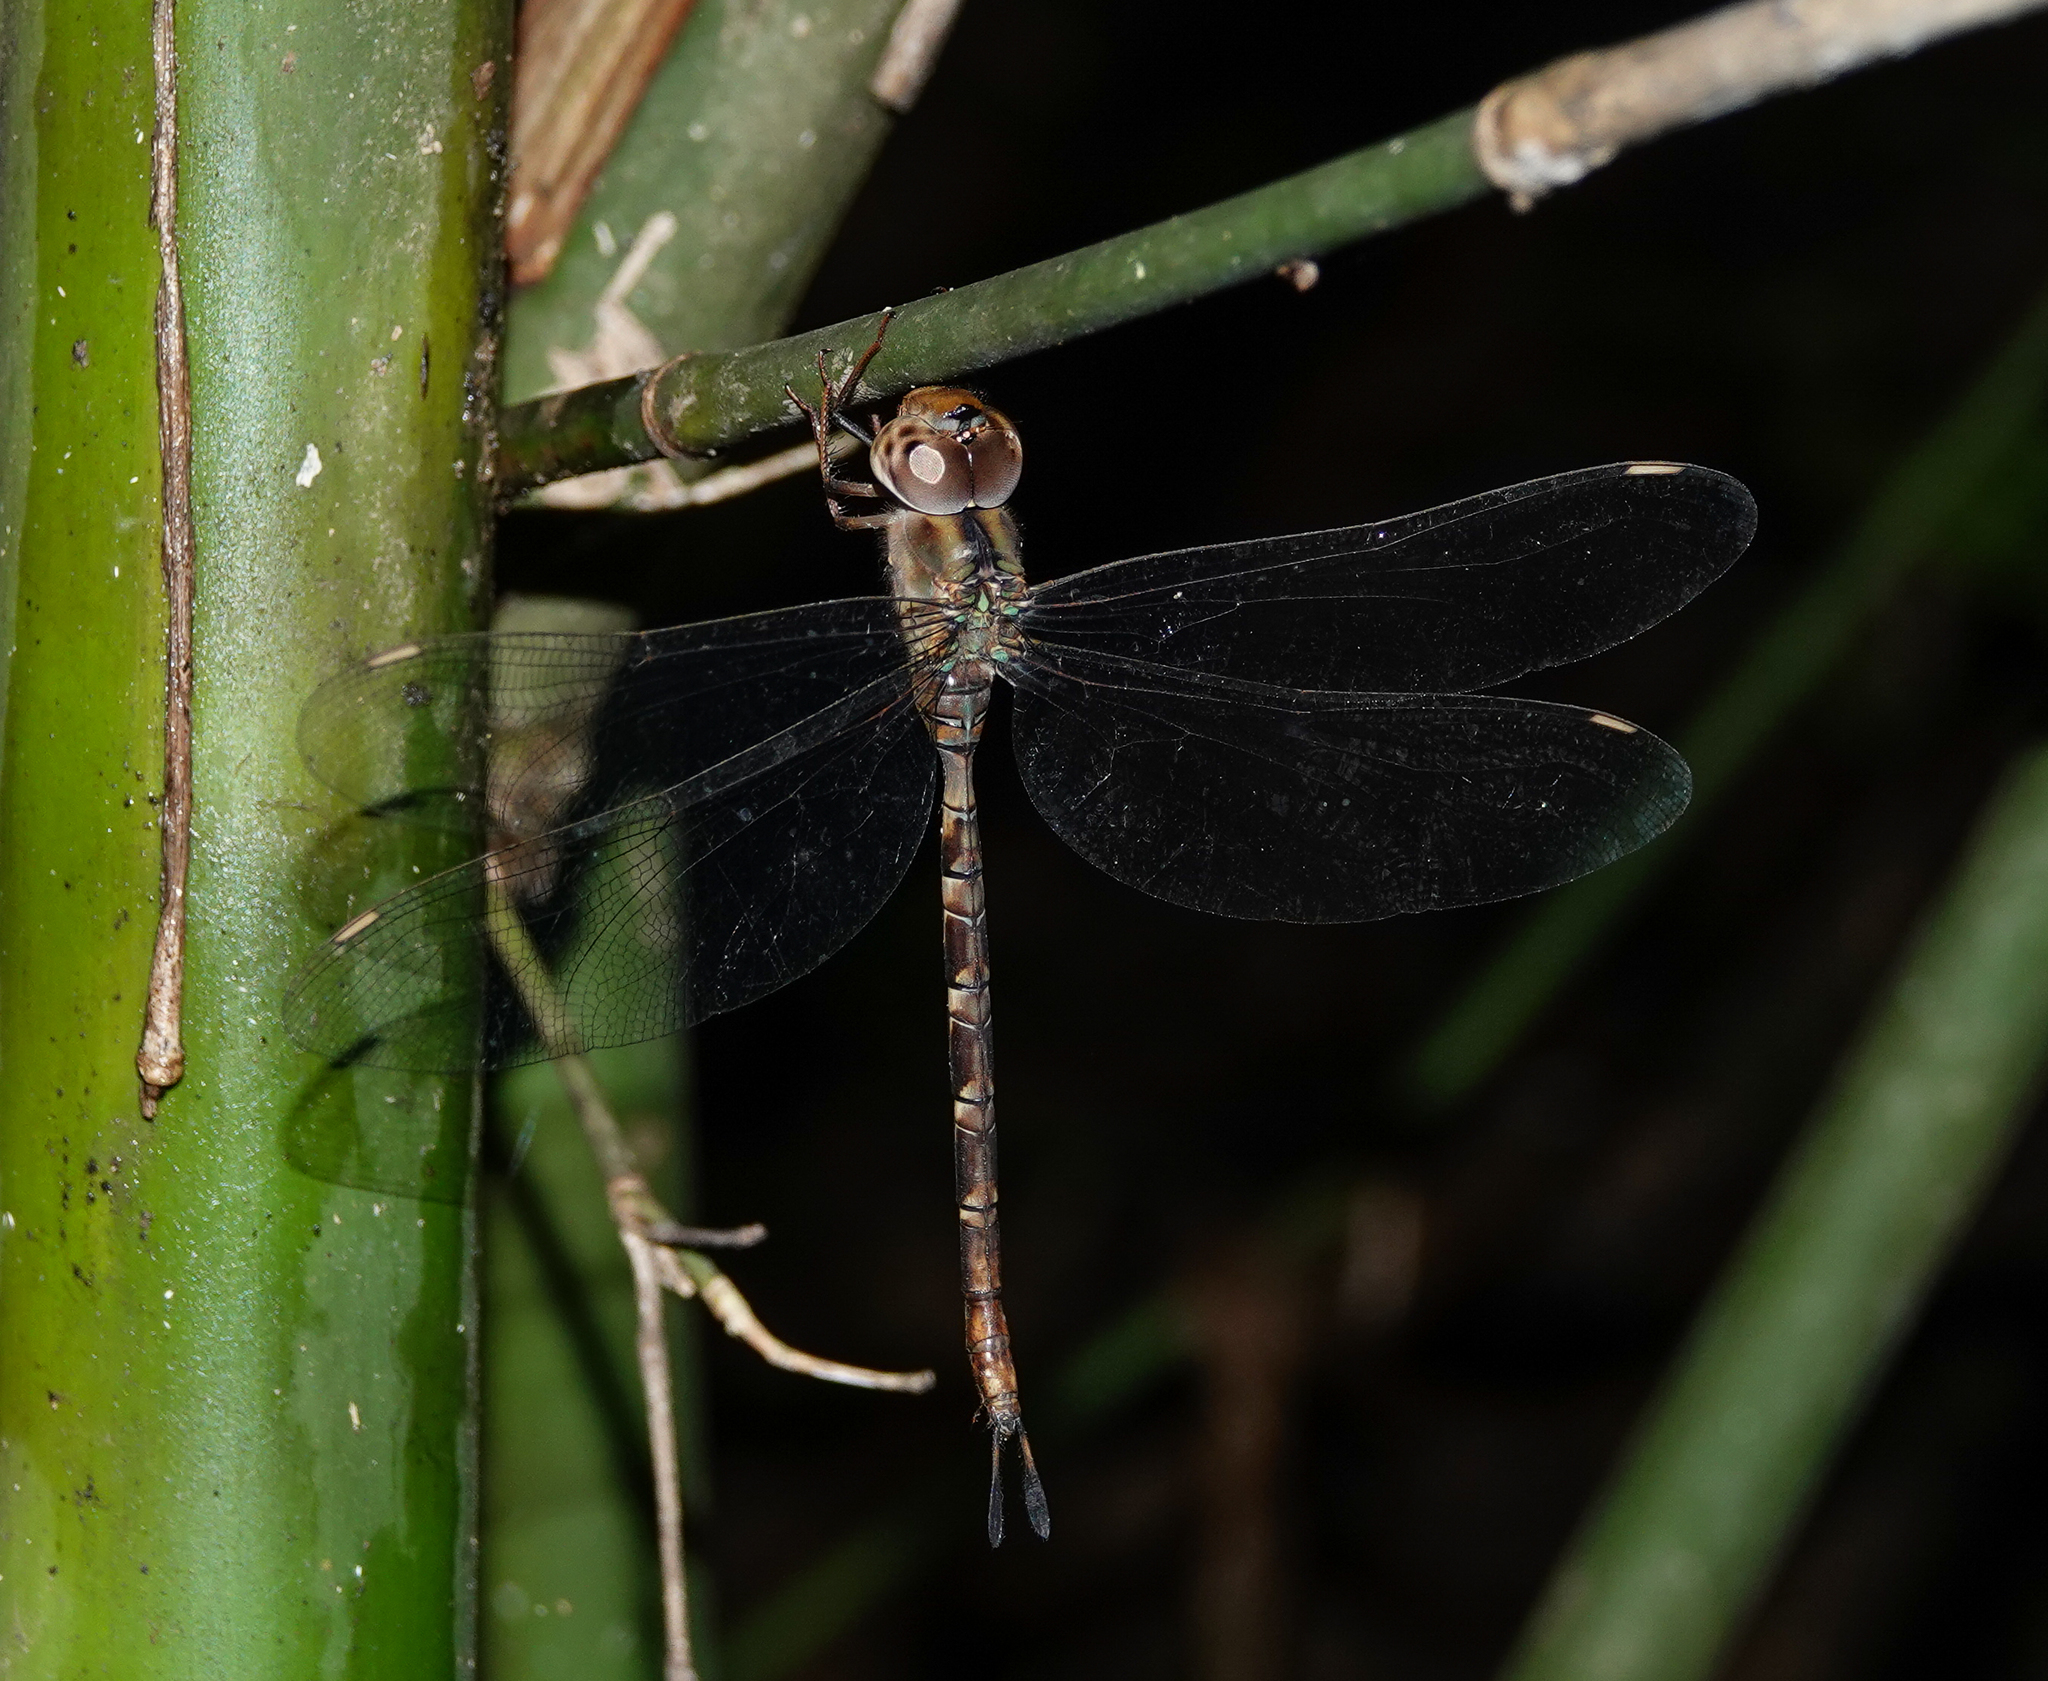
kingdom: Animalia
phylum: Arthropoda
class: Insecta
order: Odonata
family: Aeshnidae
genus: Gynacantha
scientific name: Gynacantha dravida
